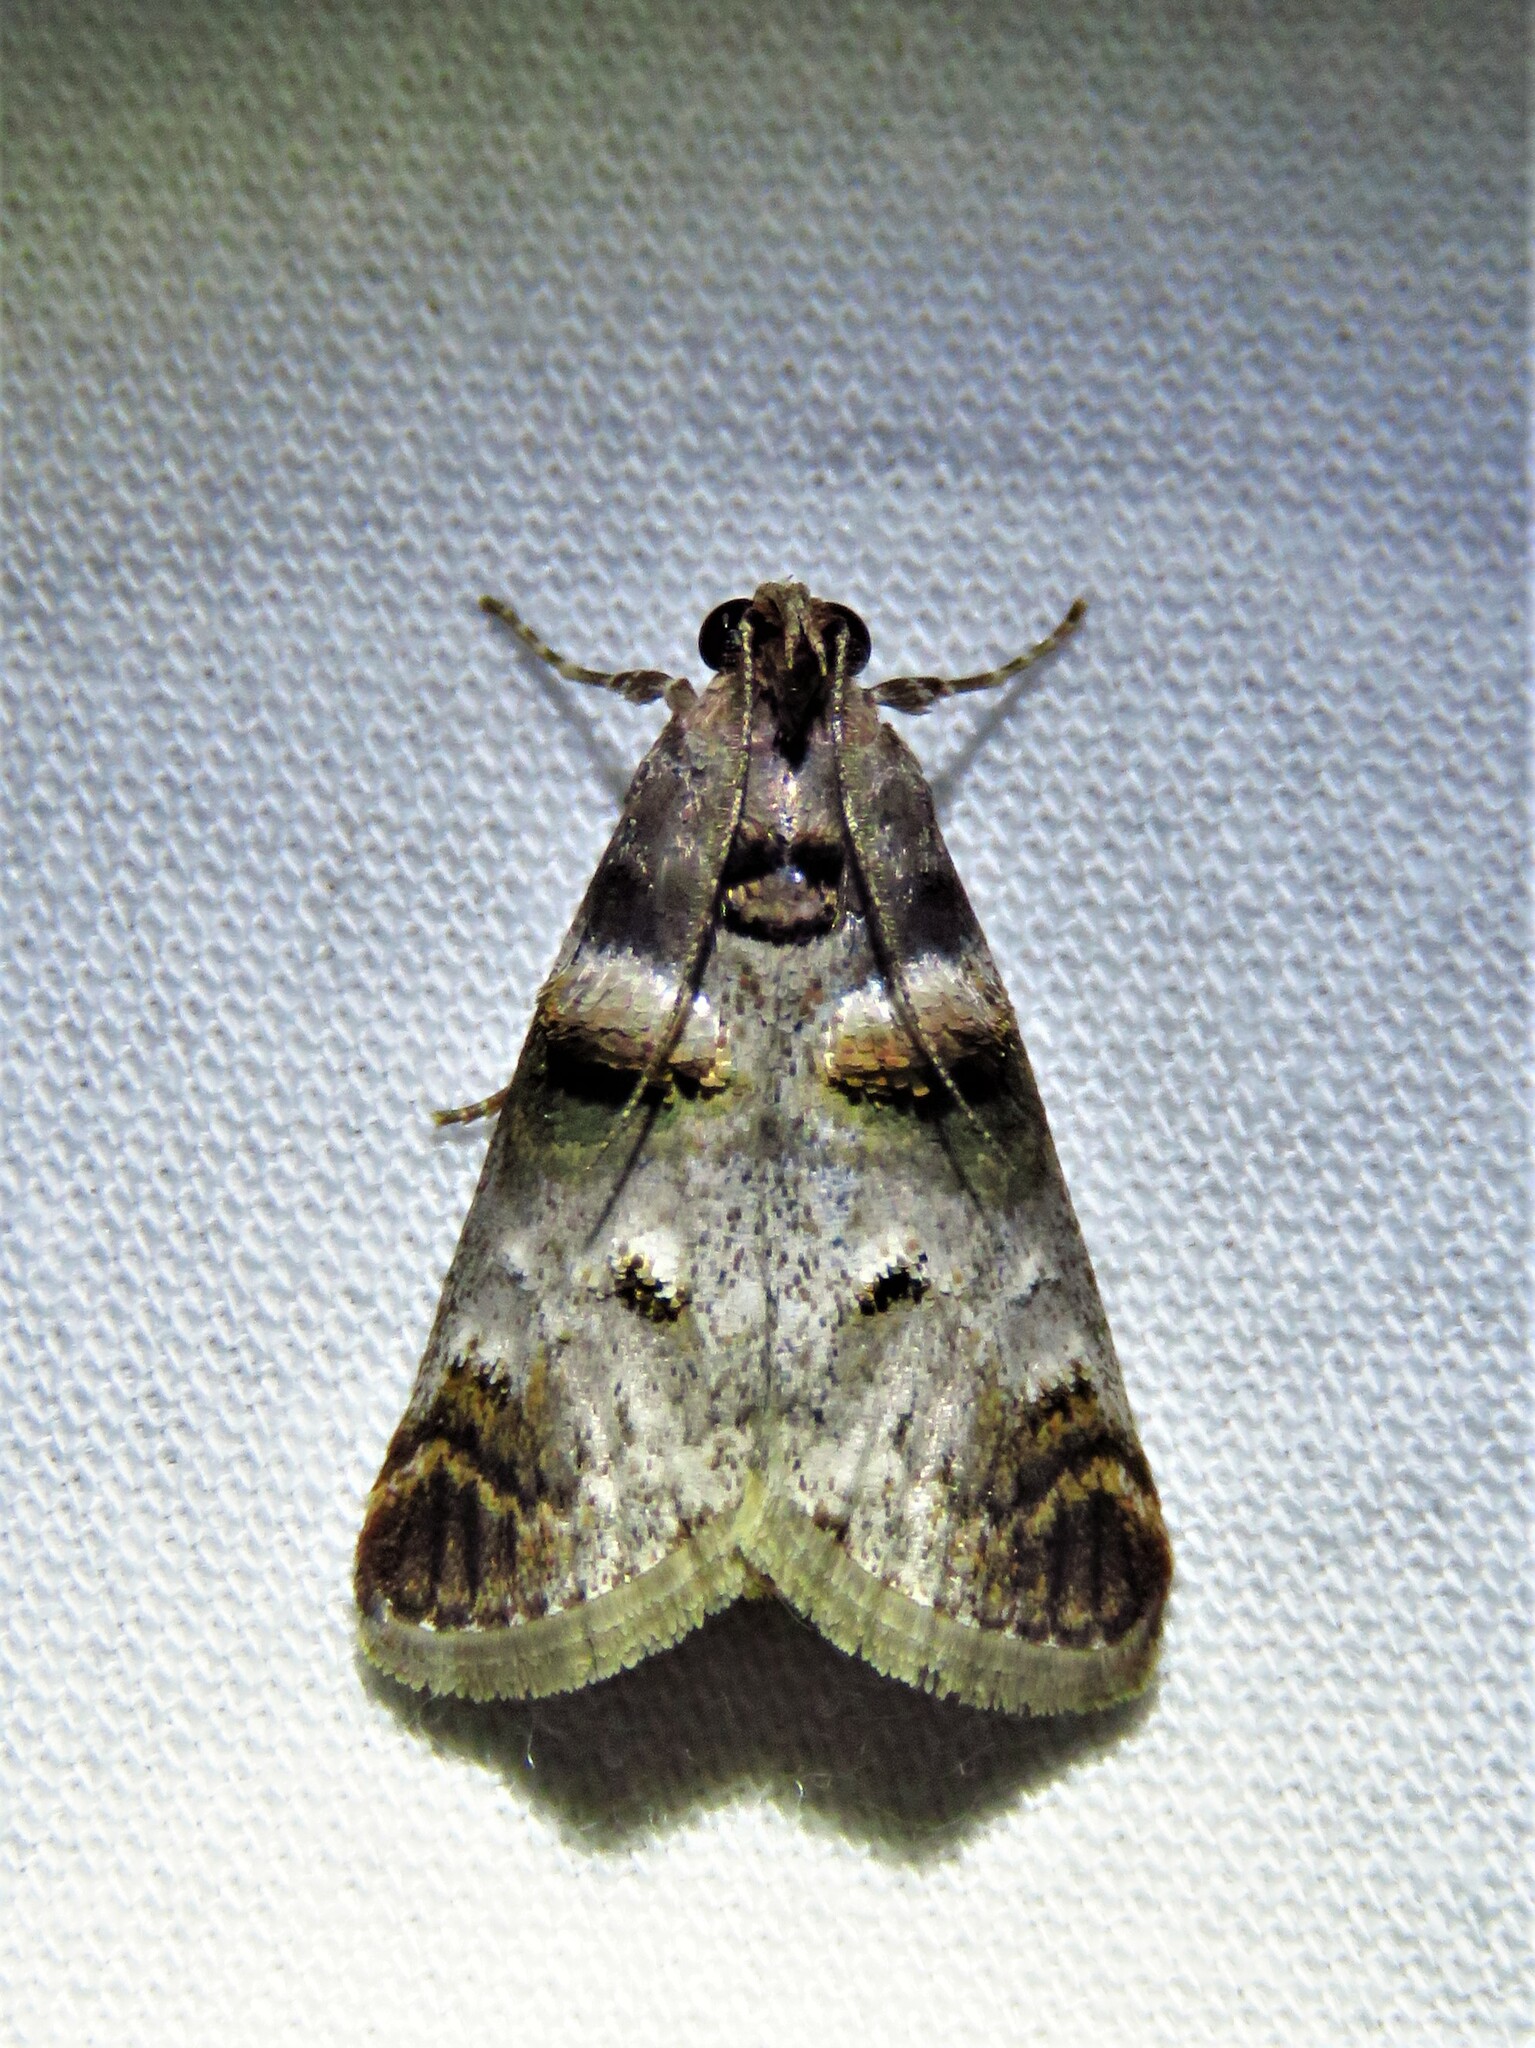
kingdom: Animalia
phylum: Arthropoda
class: Insecta
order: Lepidoptera
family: Pyralidae
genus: Oneida
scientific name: Oneida lunulalis
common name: Orange-tufted oneida moth
